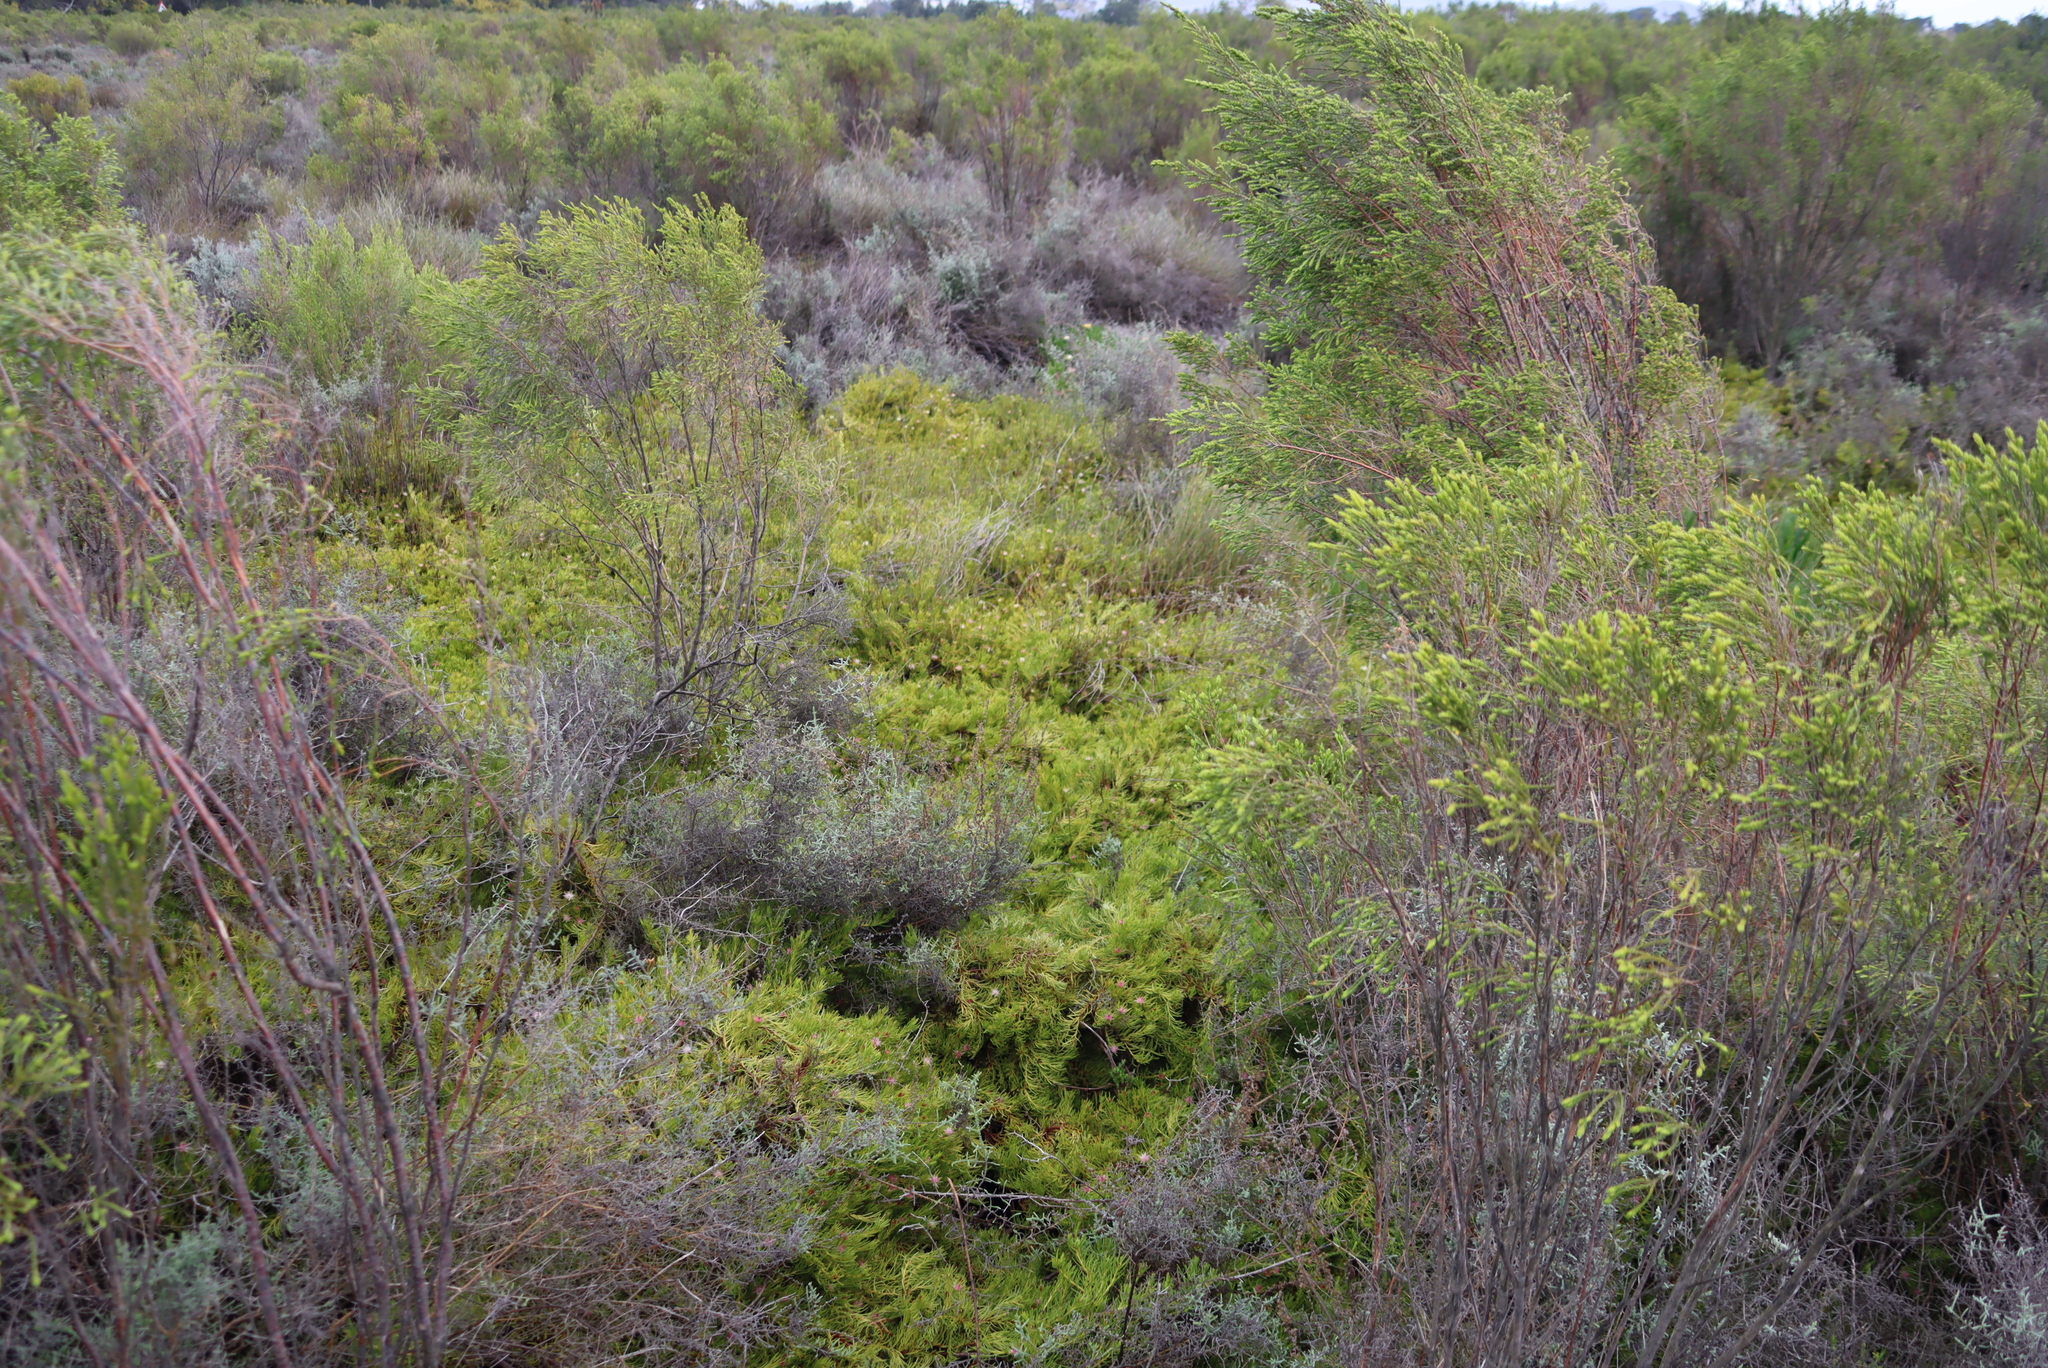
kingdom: Plantae
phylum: Tracheophyta
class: Magnoliopsida
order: Proteales
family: Proteaceae
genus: Diastella
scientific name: Diastella buekii
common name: Franschhoek silkypuff
